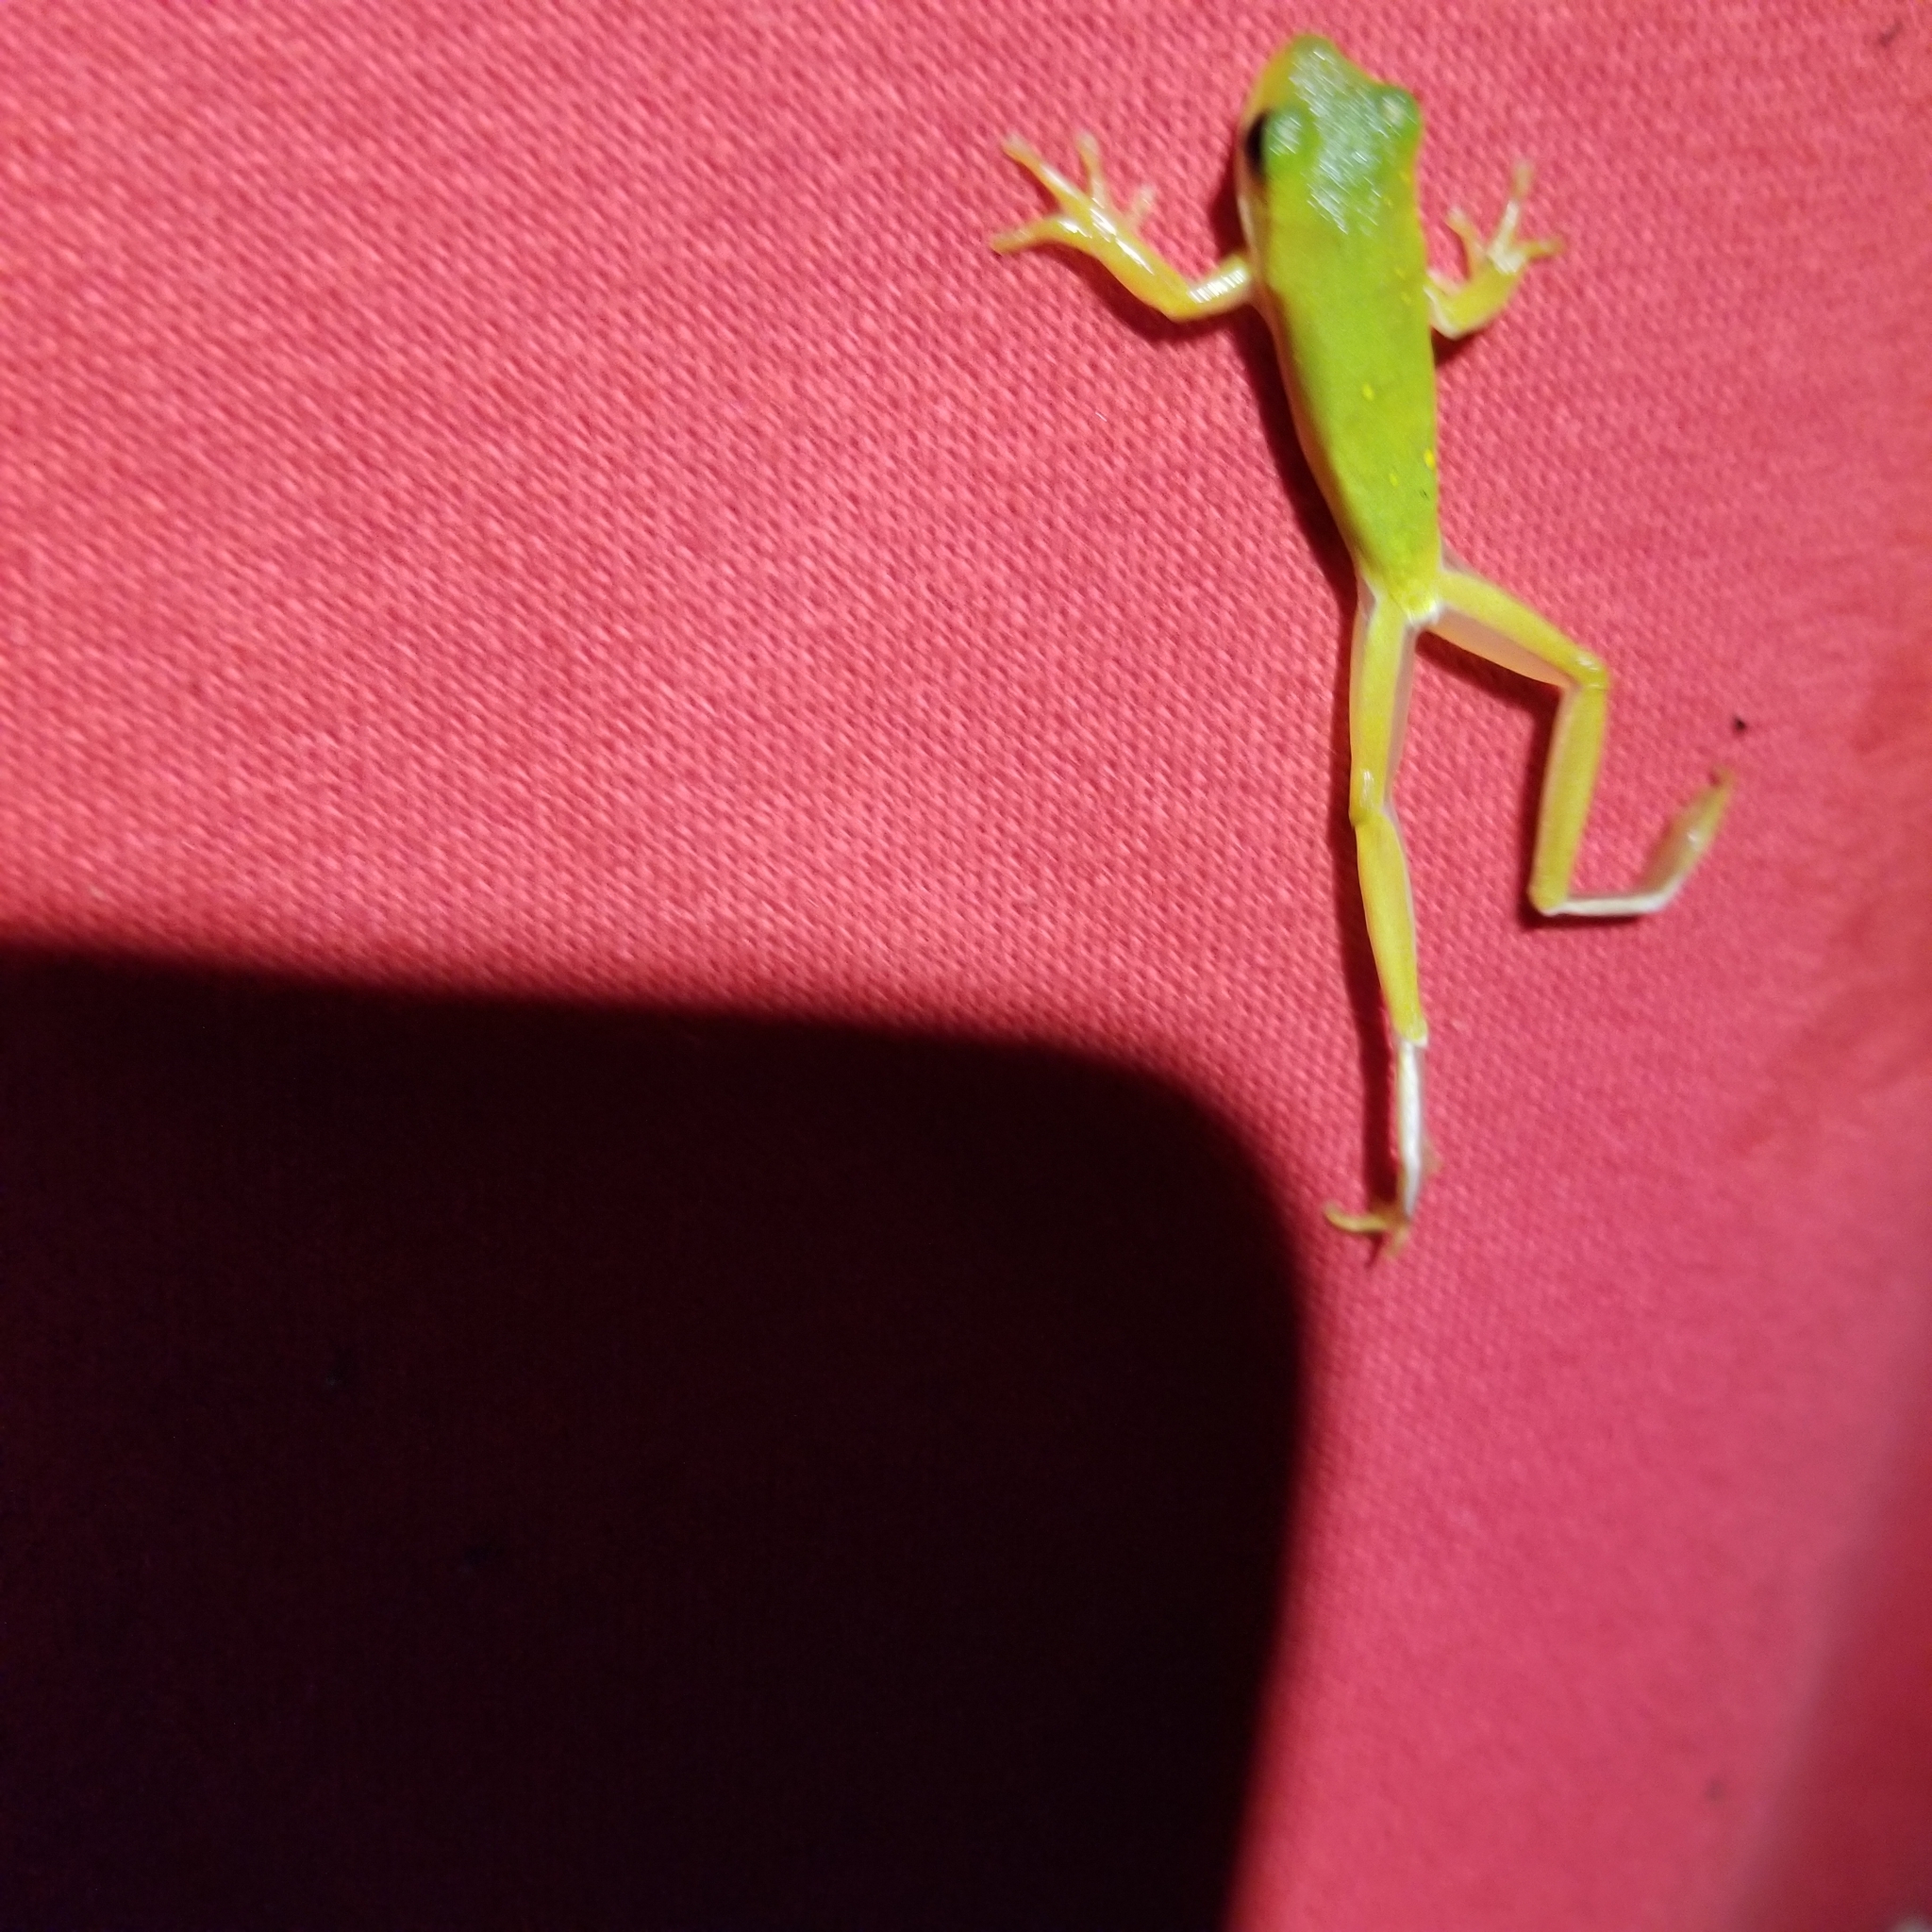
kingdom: Animalia
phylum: Chordata
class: Amphibia
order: Anura
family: Hylidae
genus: Dryophytes
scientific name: Dryophytes cinereus
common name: Green treefrog
